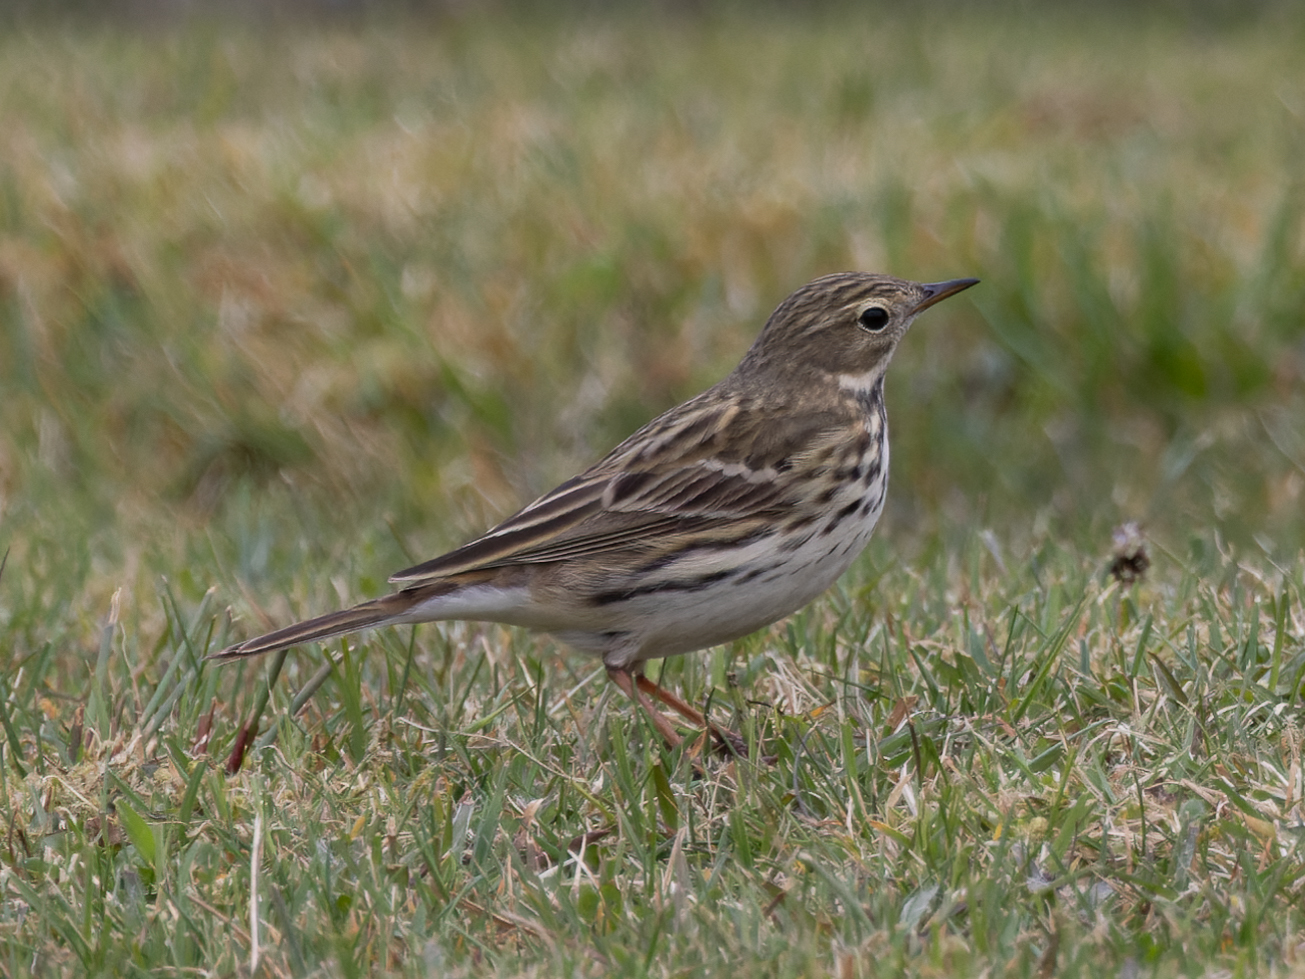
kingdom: Animalia
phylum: Chordata
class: Aves
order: Passeriformes
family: Motacillidae
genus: Anthus
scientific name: Anthus pratensis
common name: Meadow pipit
